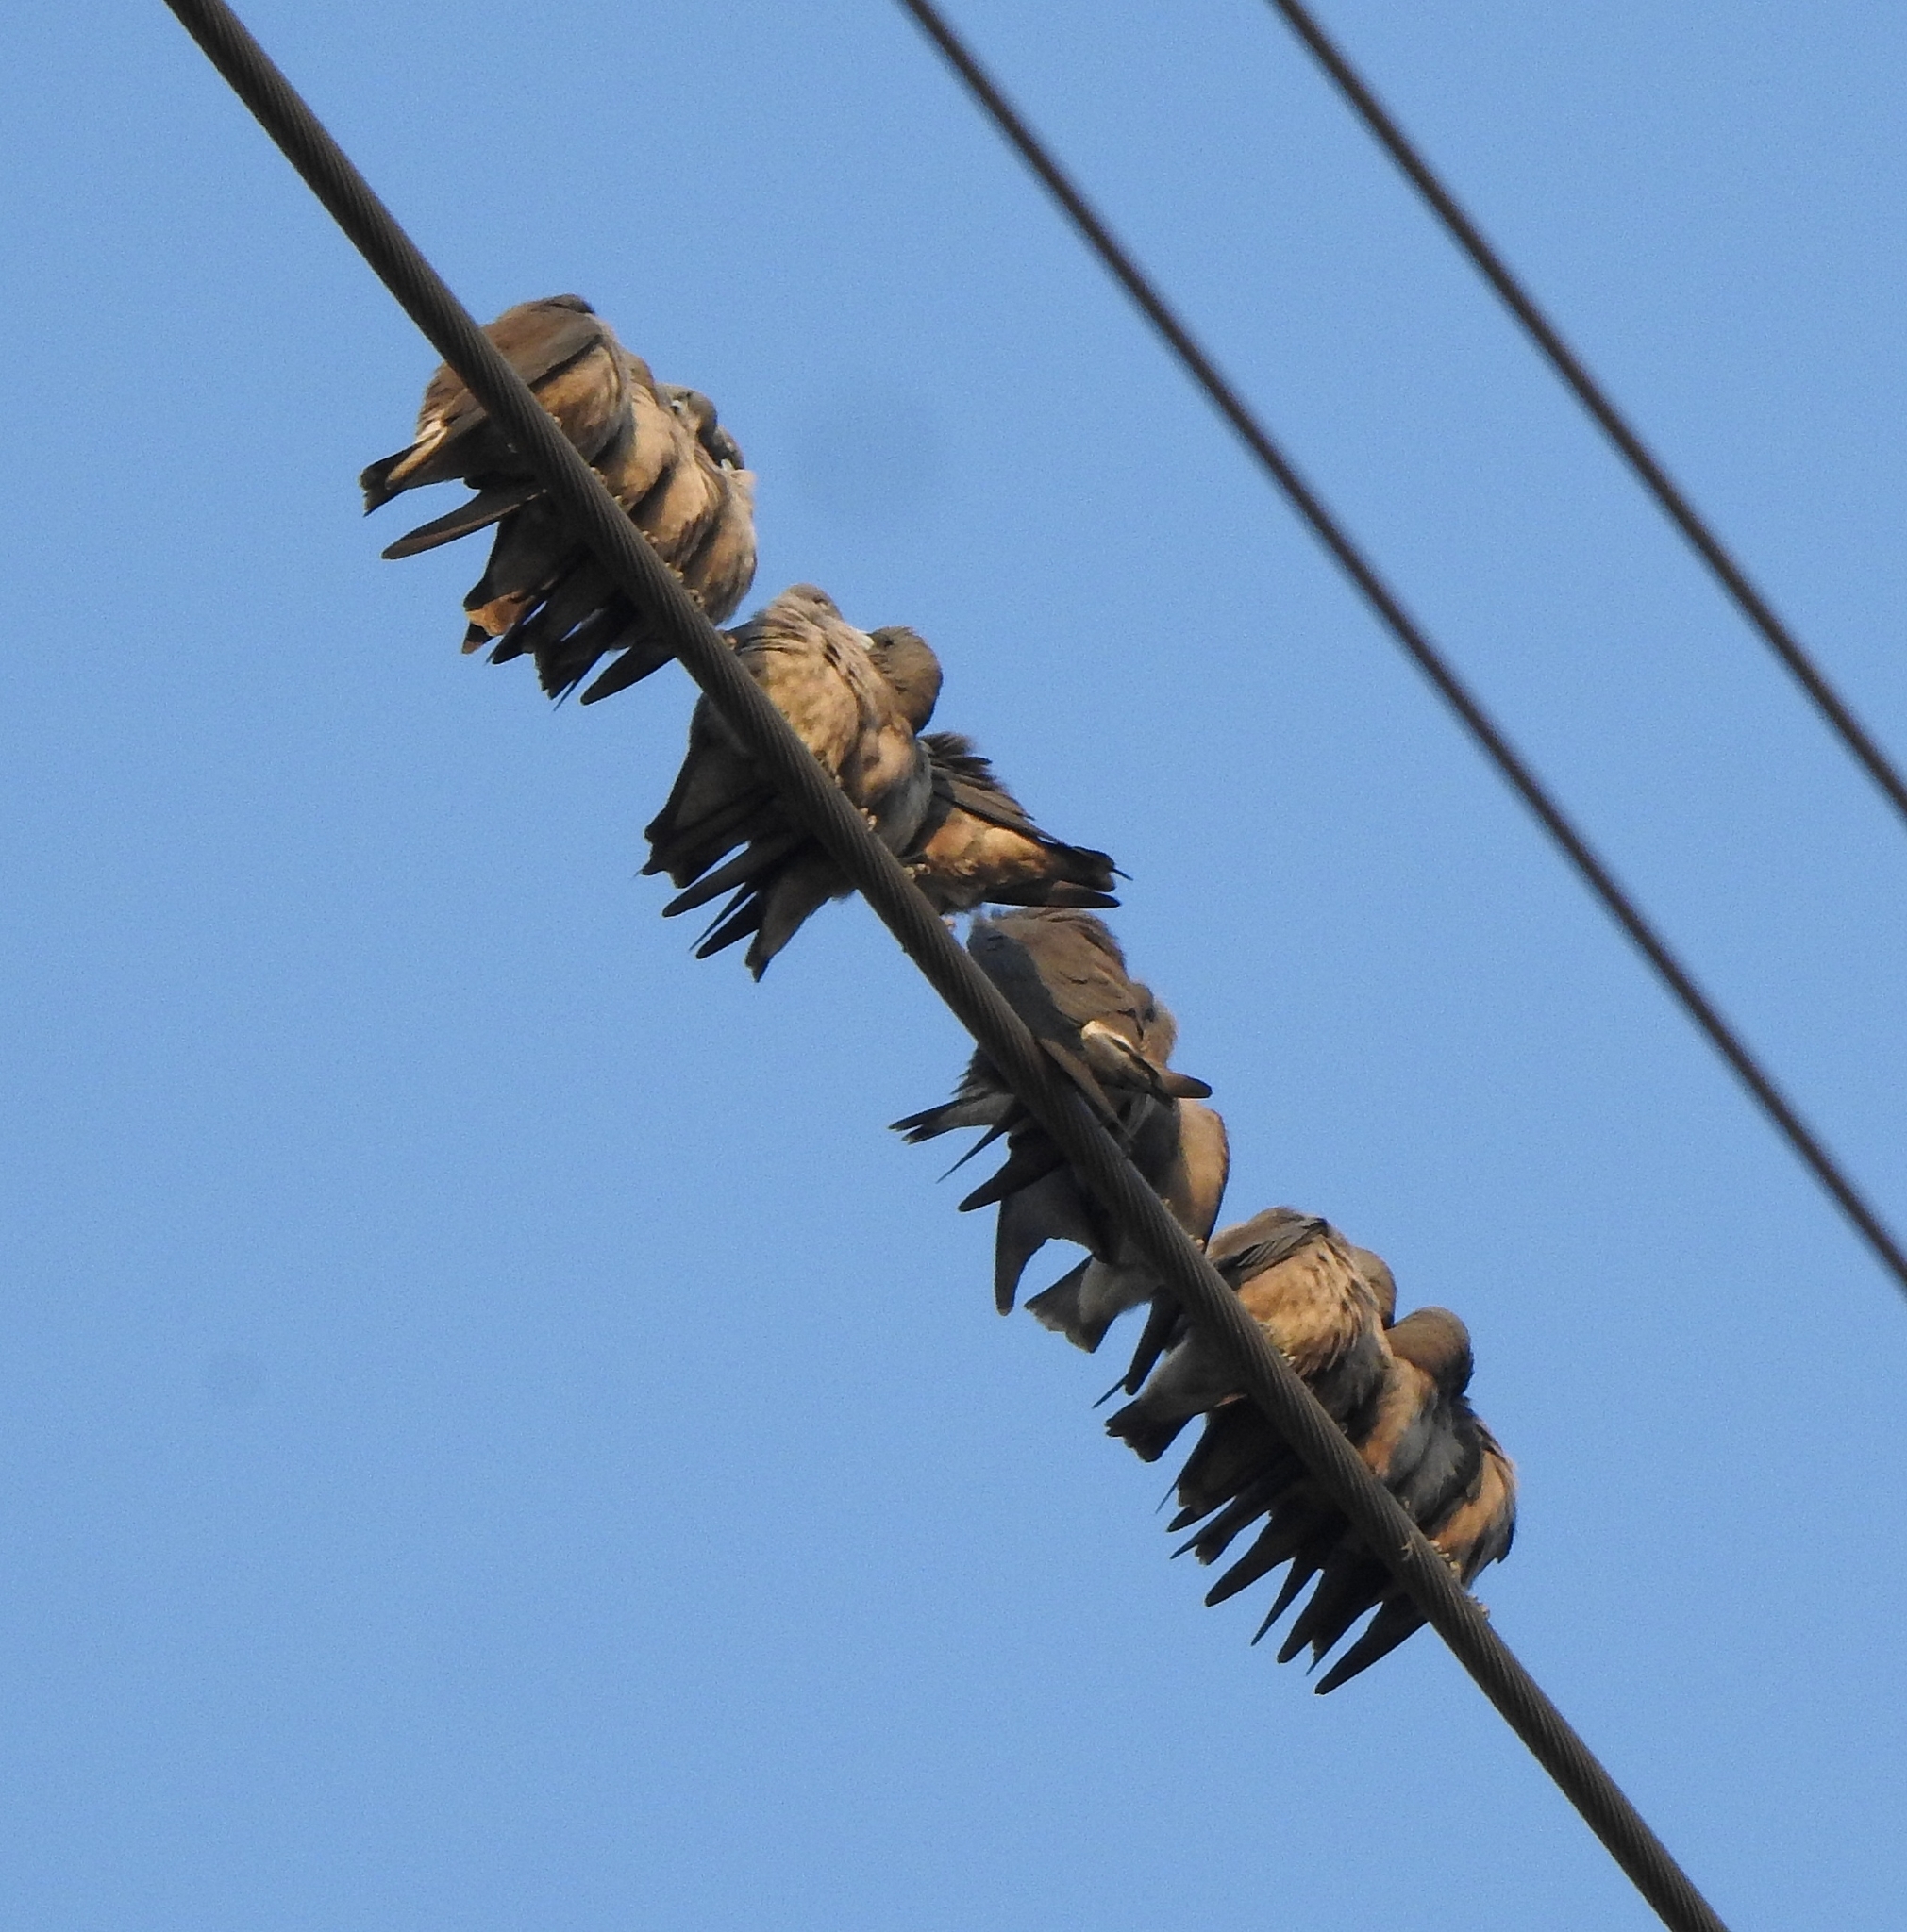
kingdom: Animalia
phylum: Chordata
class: Aves
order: Passeriformes
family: Artamidae
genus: Artamus
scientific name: Artamus fuscus
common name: Ashy woodswallow
